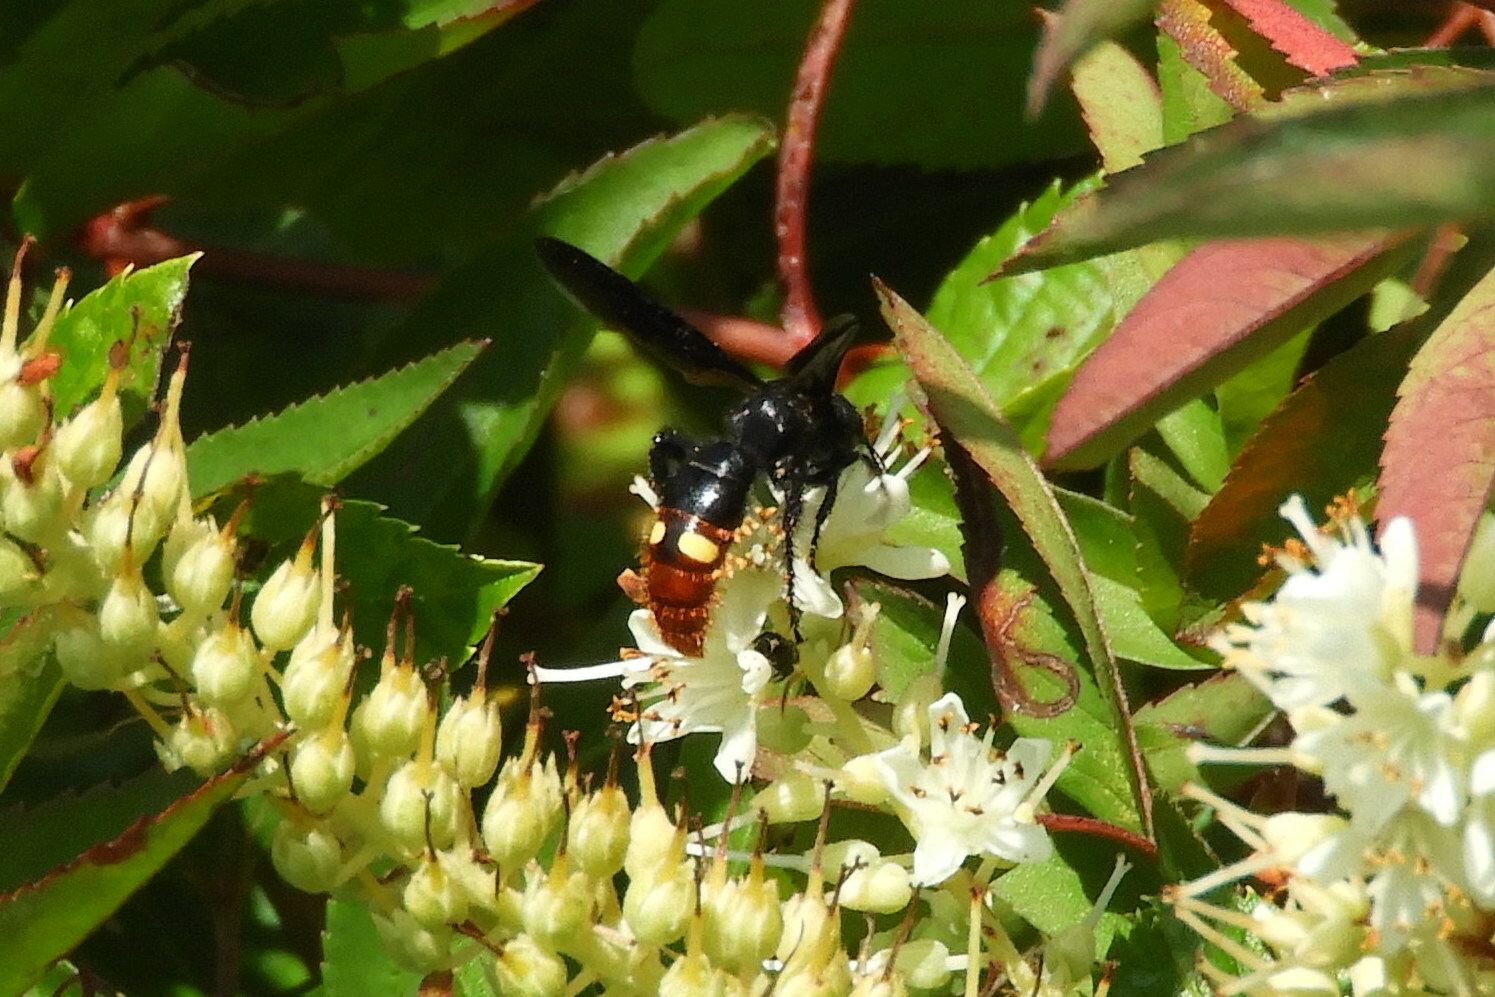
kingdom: Animalia
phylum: Arthropoda
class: Insecta
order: Hymenoptera
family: Scoliidae
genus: Scolia
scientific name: Scolia dubia
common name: Blue-winged scoliid wasp
